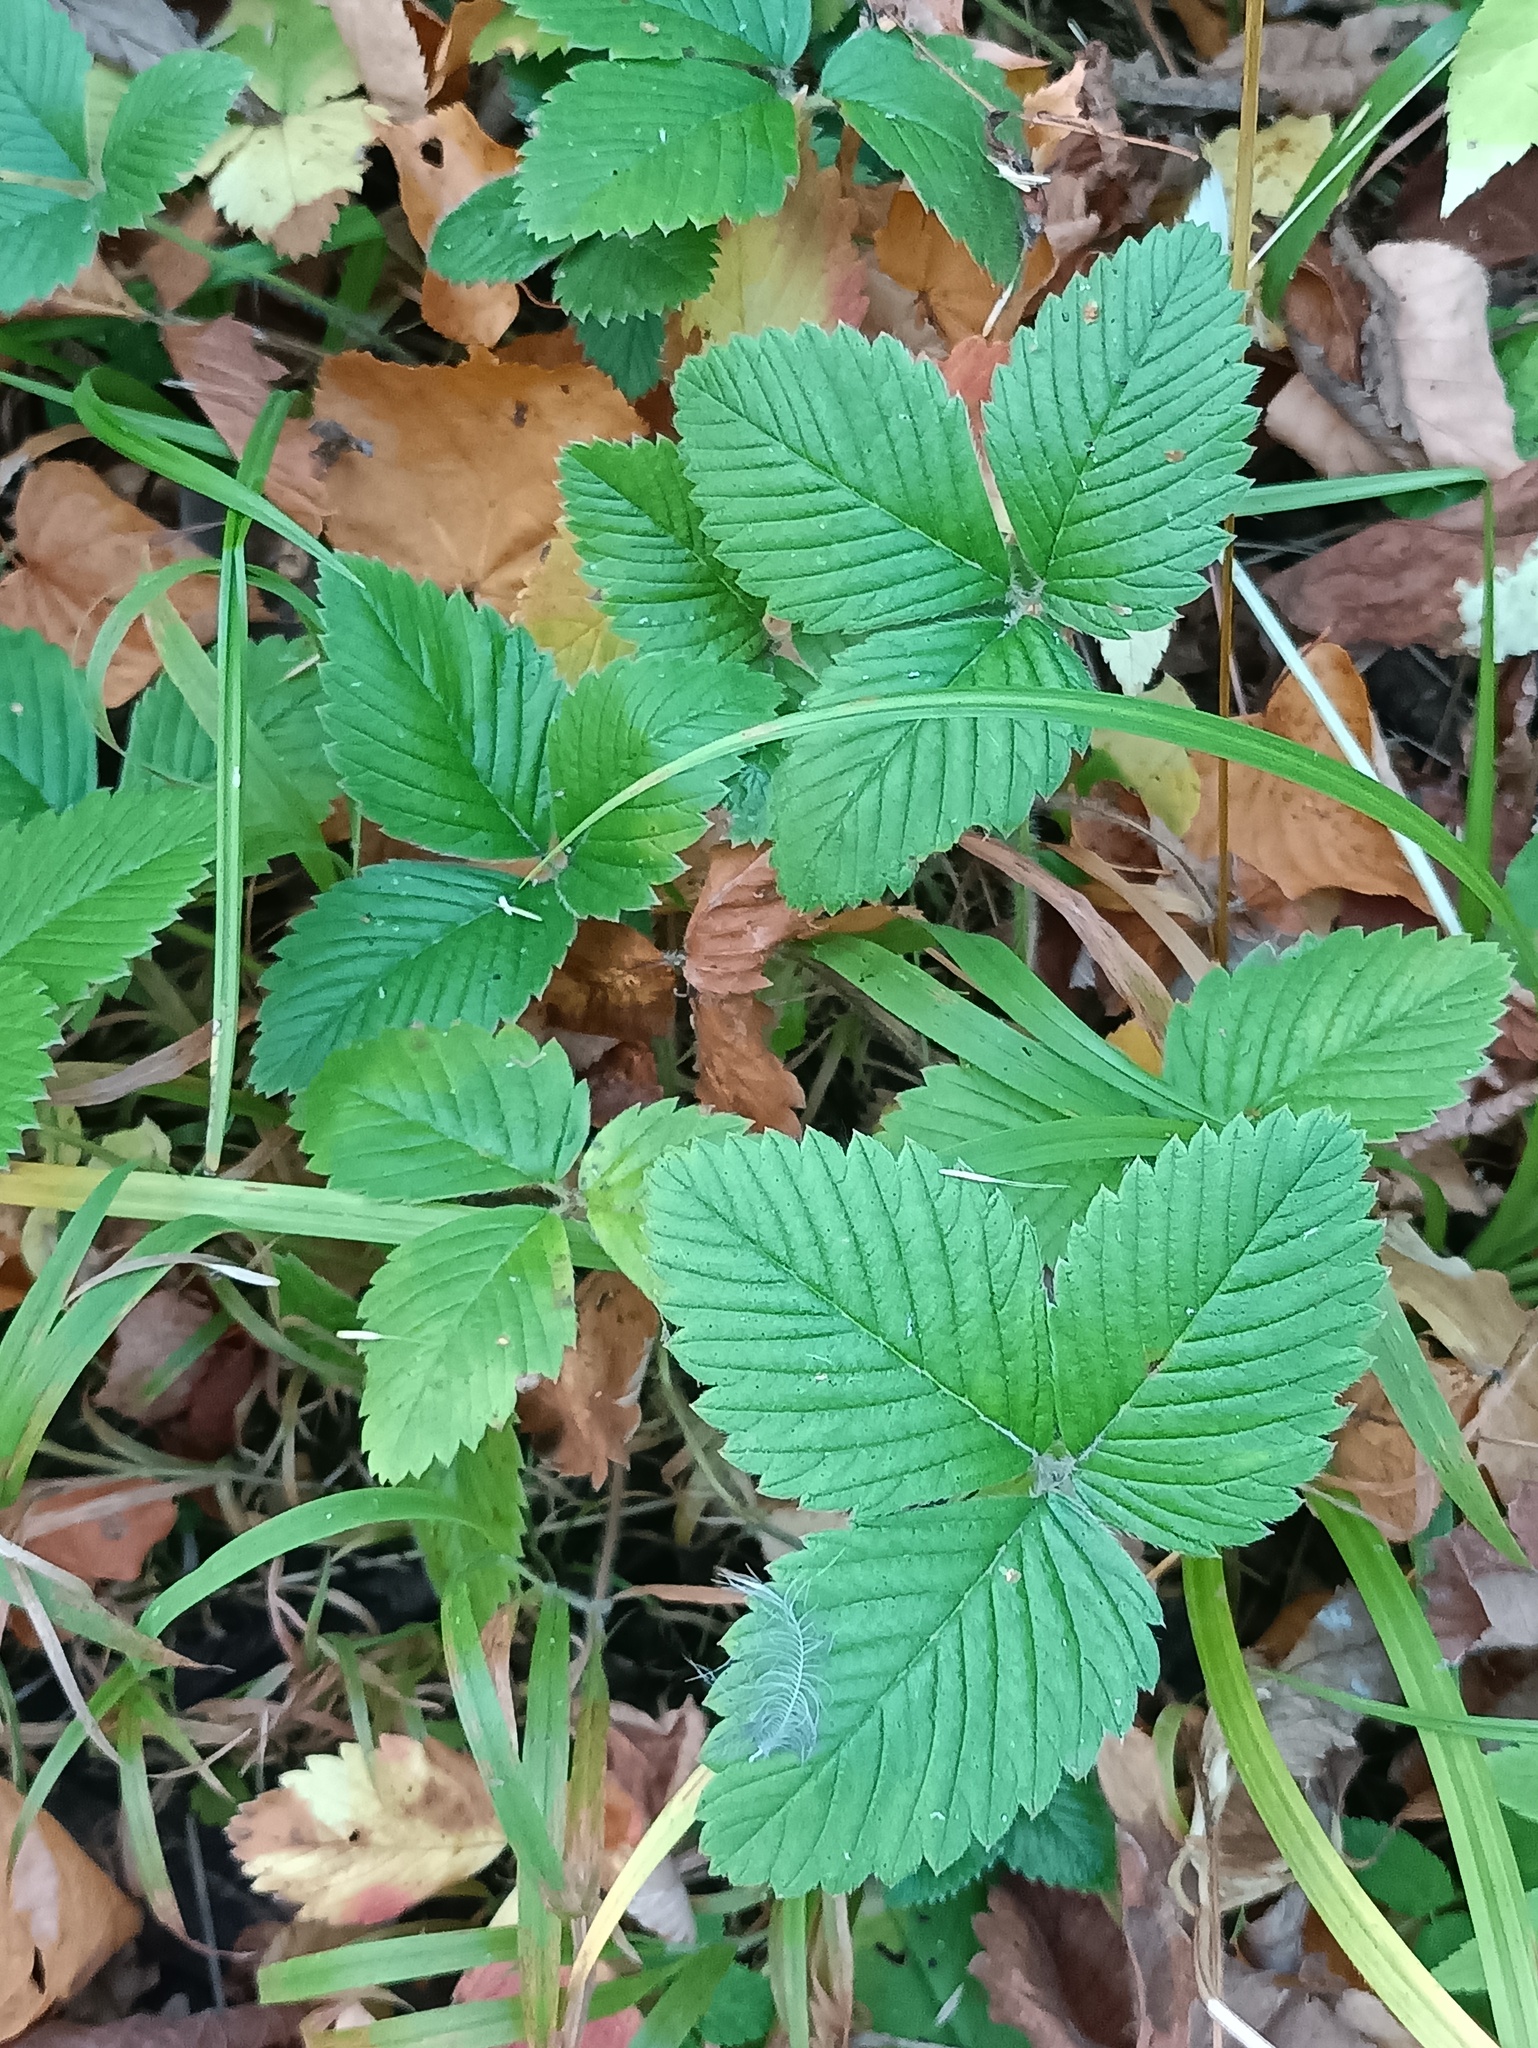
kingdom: Plantae
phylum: Tracheophyta
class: Magnoliopsida
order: Rosales
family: Rosaceae
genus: Fragaria
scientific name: Fragaria moschata
